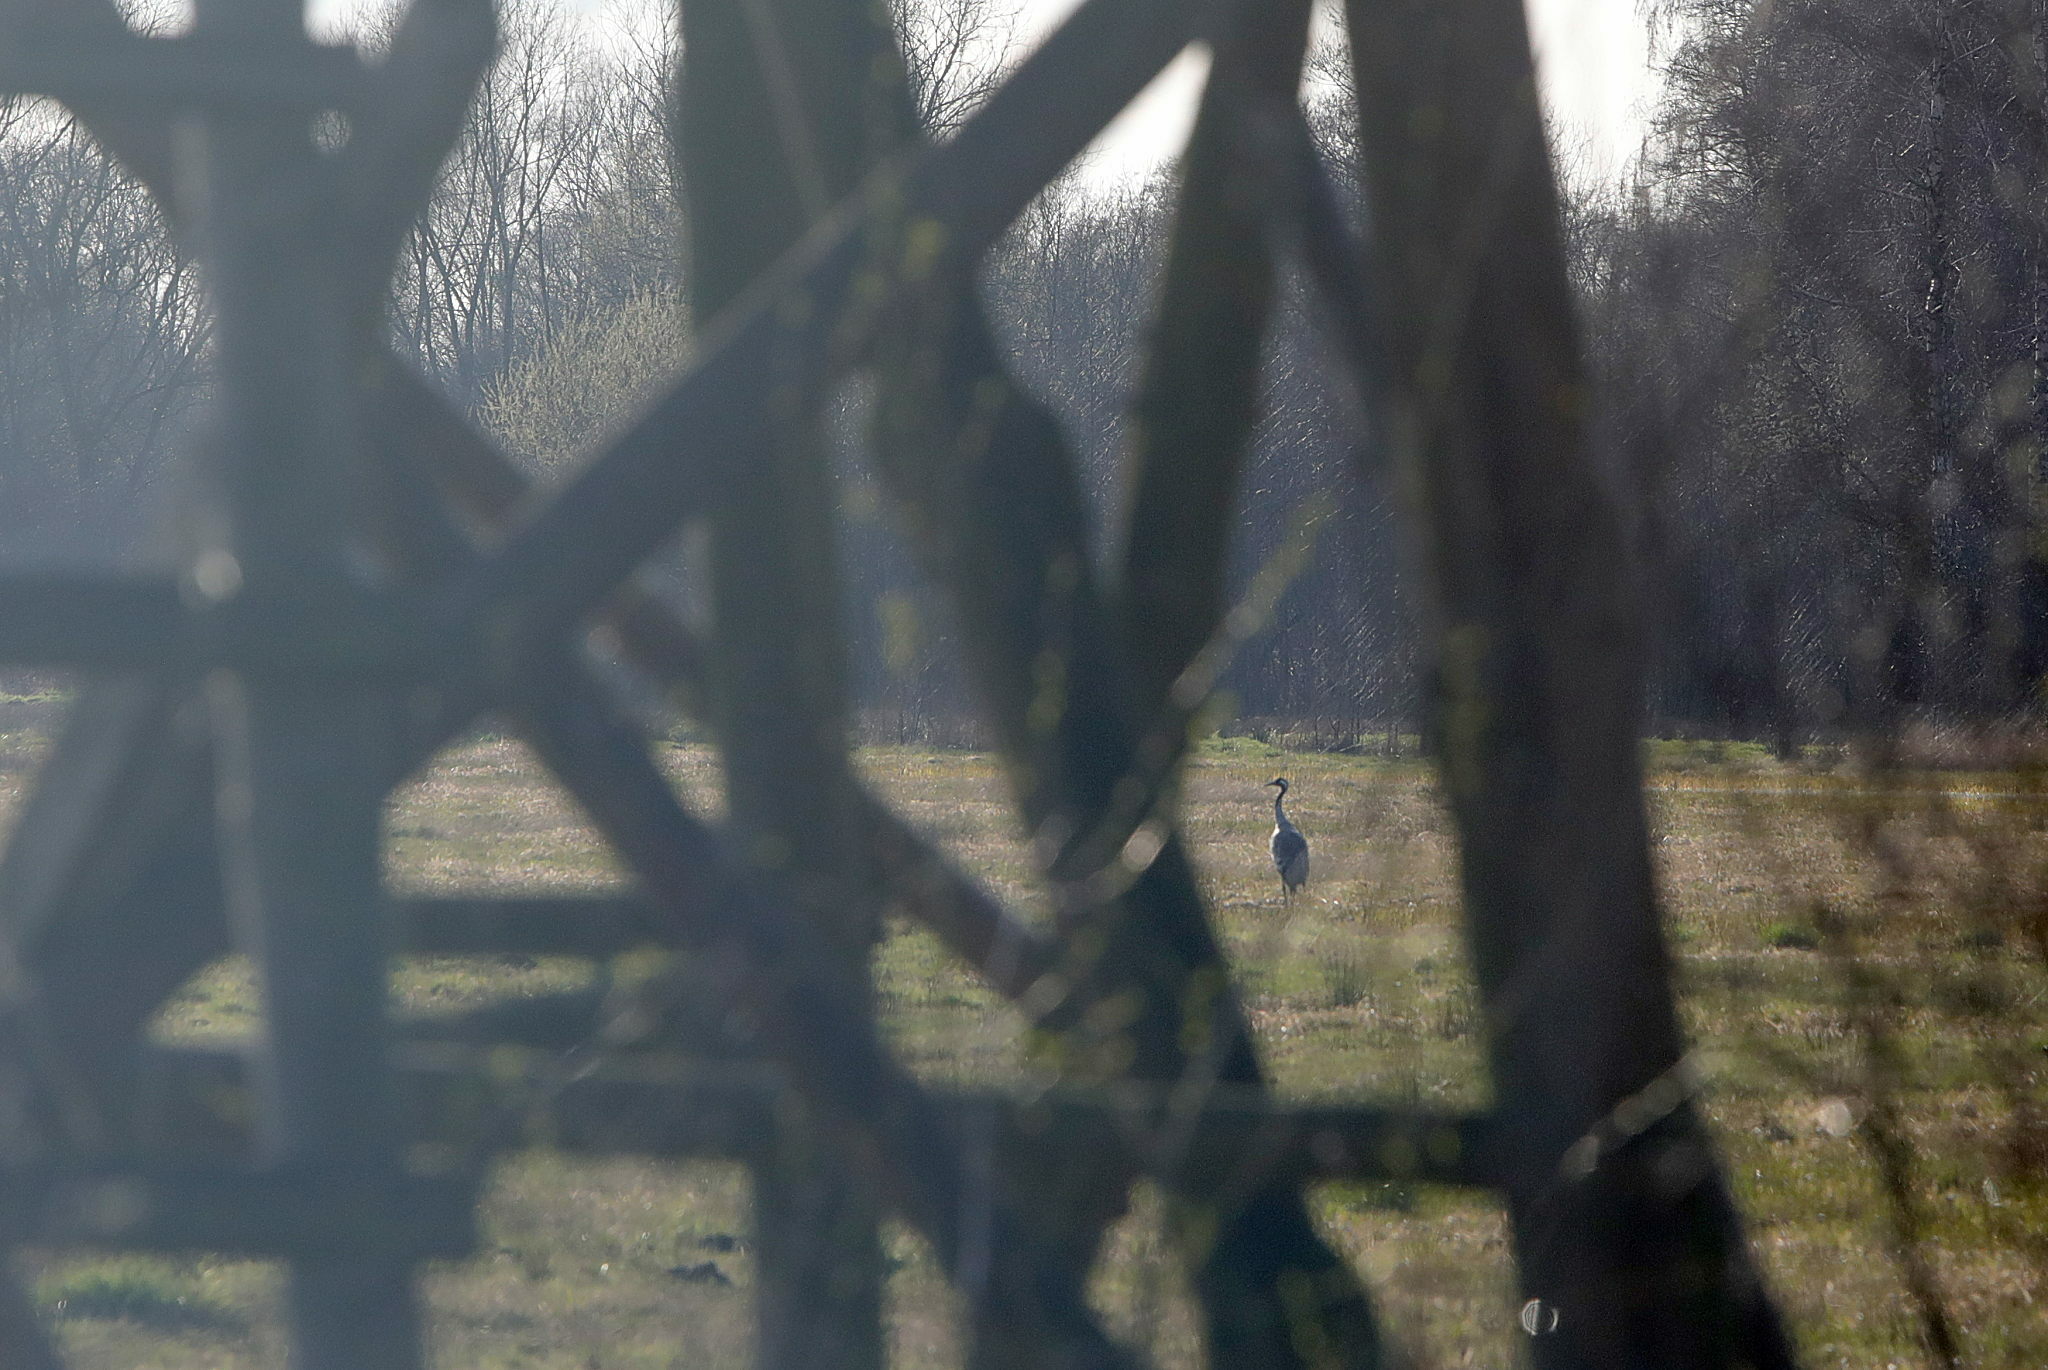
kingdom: Animalia
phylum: Chordata
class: Aves
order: Gruiformes
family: Gruidae
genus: Grus
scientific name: Grus grus
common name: Common crane
